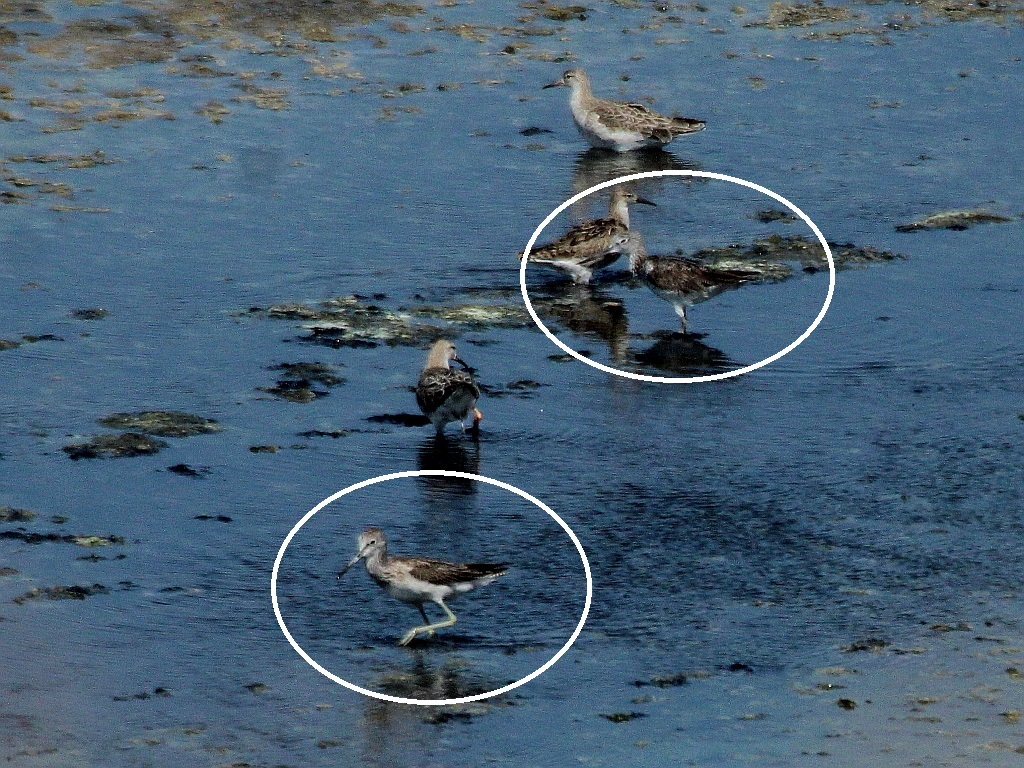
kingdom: Animalia
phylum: Chordata
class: Aves
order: Charadriiformes
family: Scolopacidae
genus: Tringa
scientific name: Tringa nebularia
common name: Common greenshank
